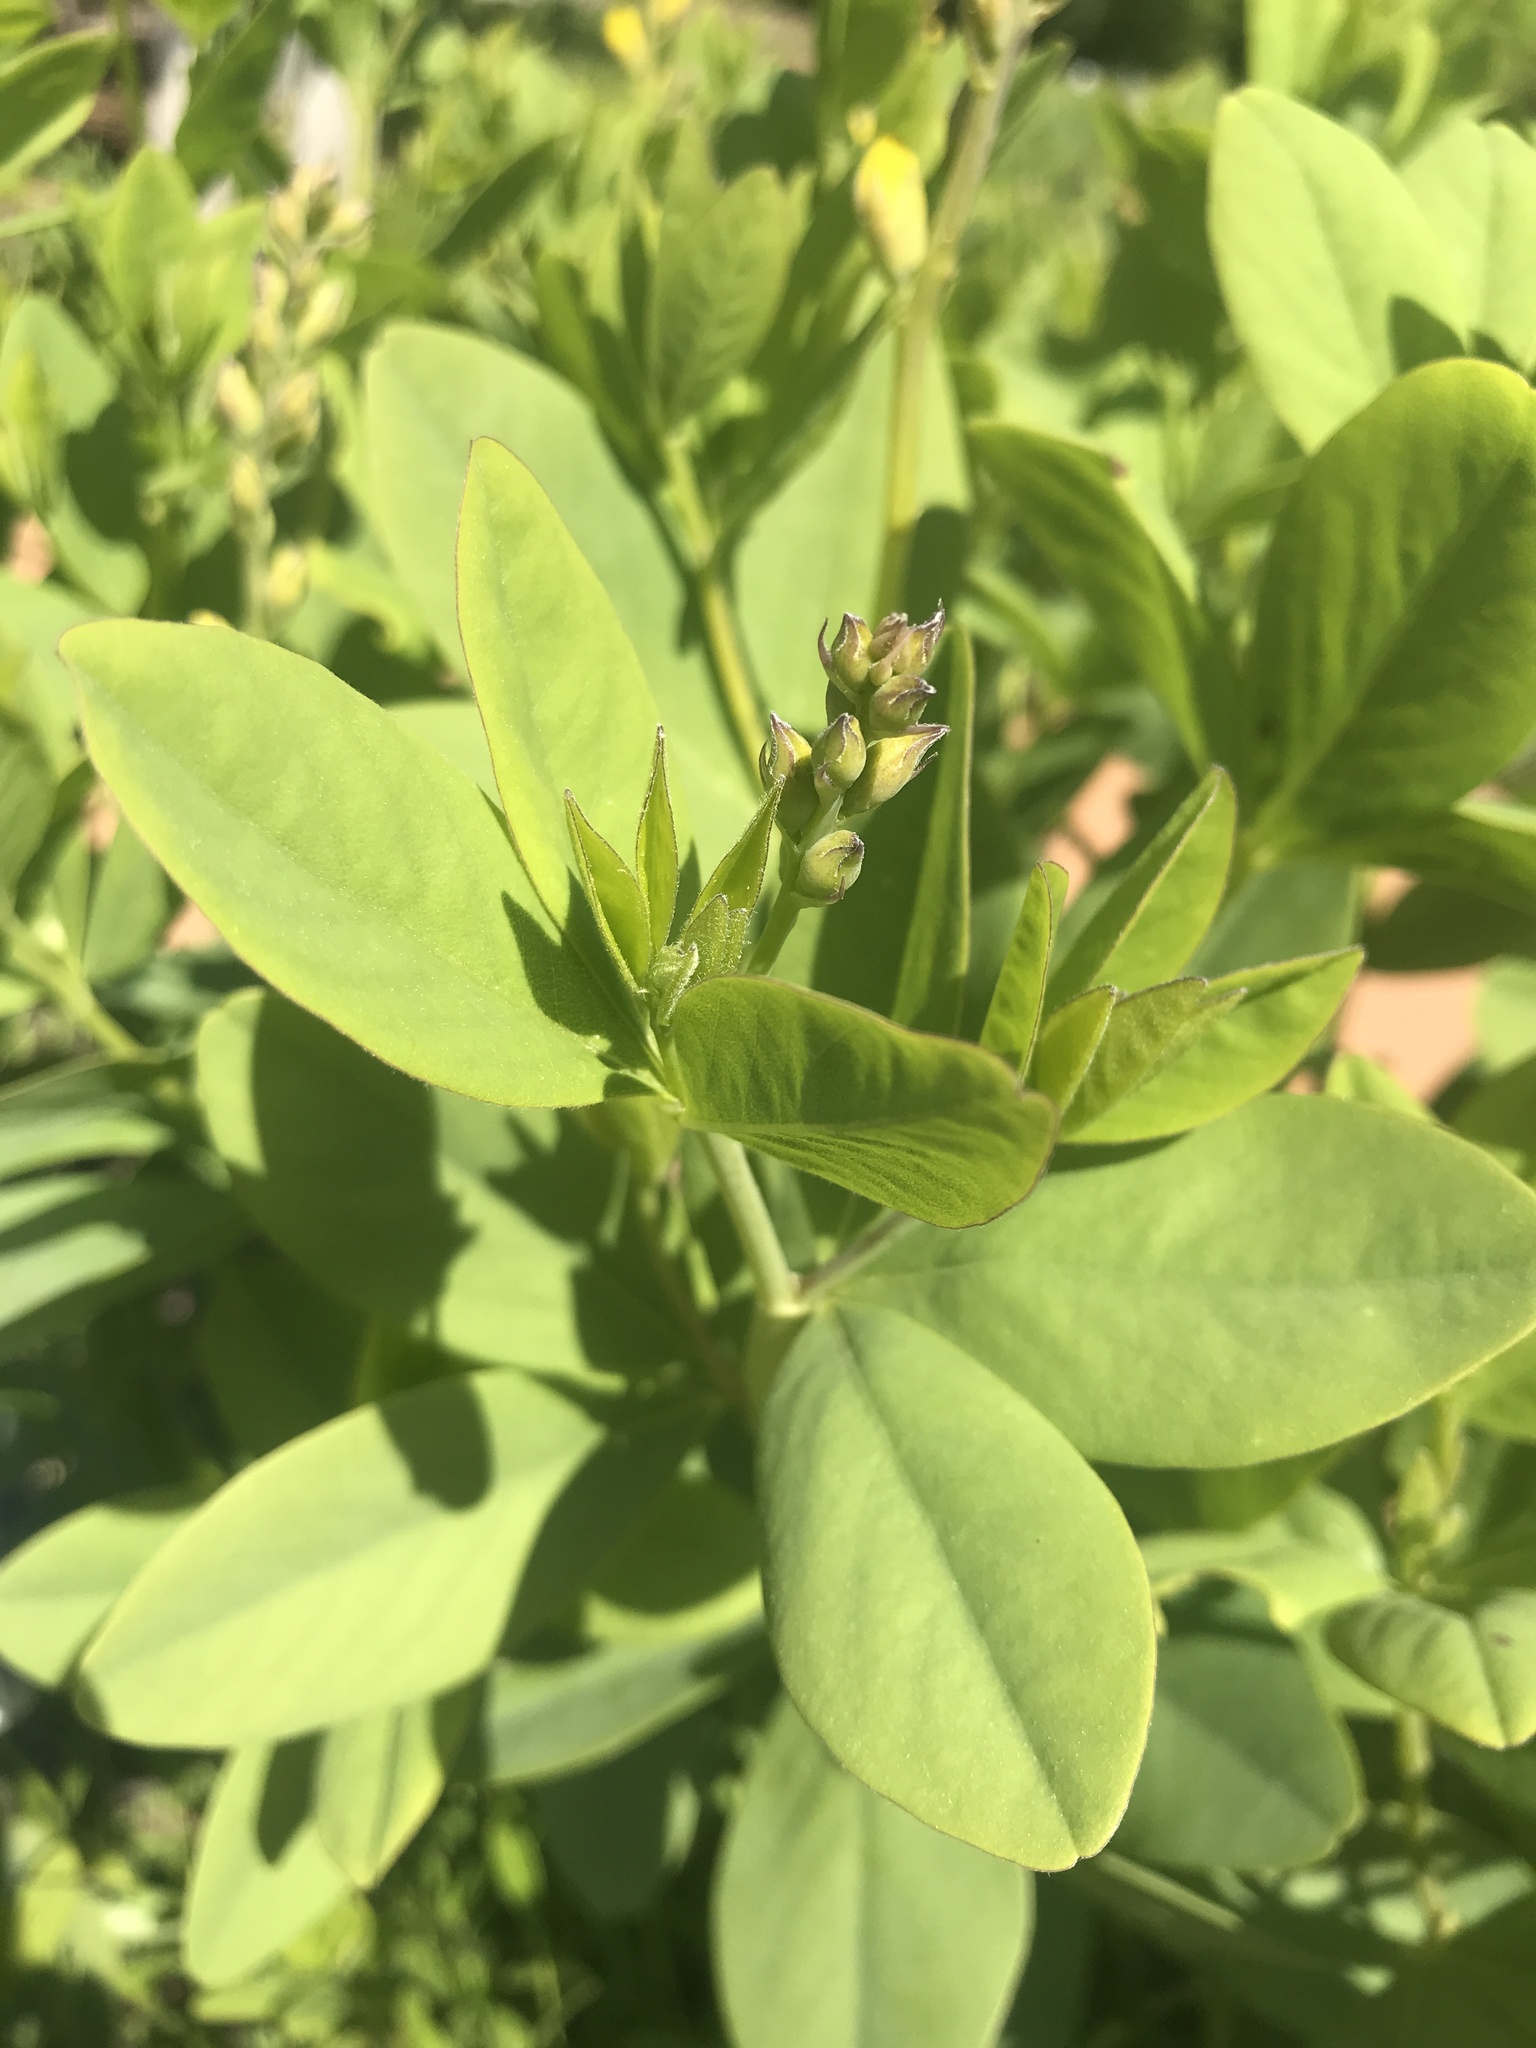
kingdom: Plantae
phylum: Tracheophyta
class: Magnoliopsida
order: Fabales
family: Fabaceae
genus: Baptisia
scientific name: Baptisia sphaerocarpa
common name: Round wild indigo
